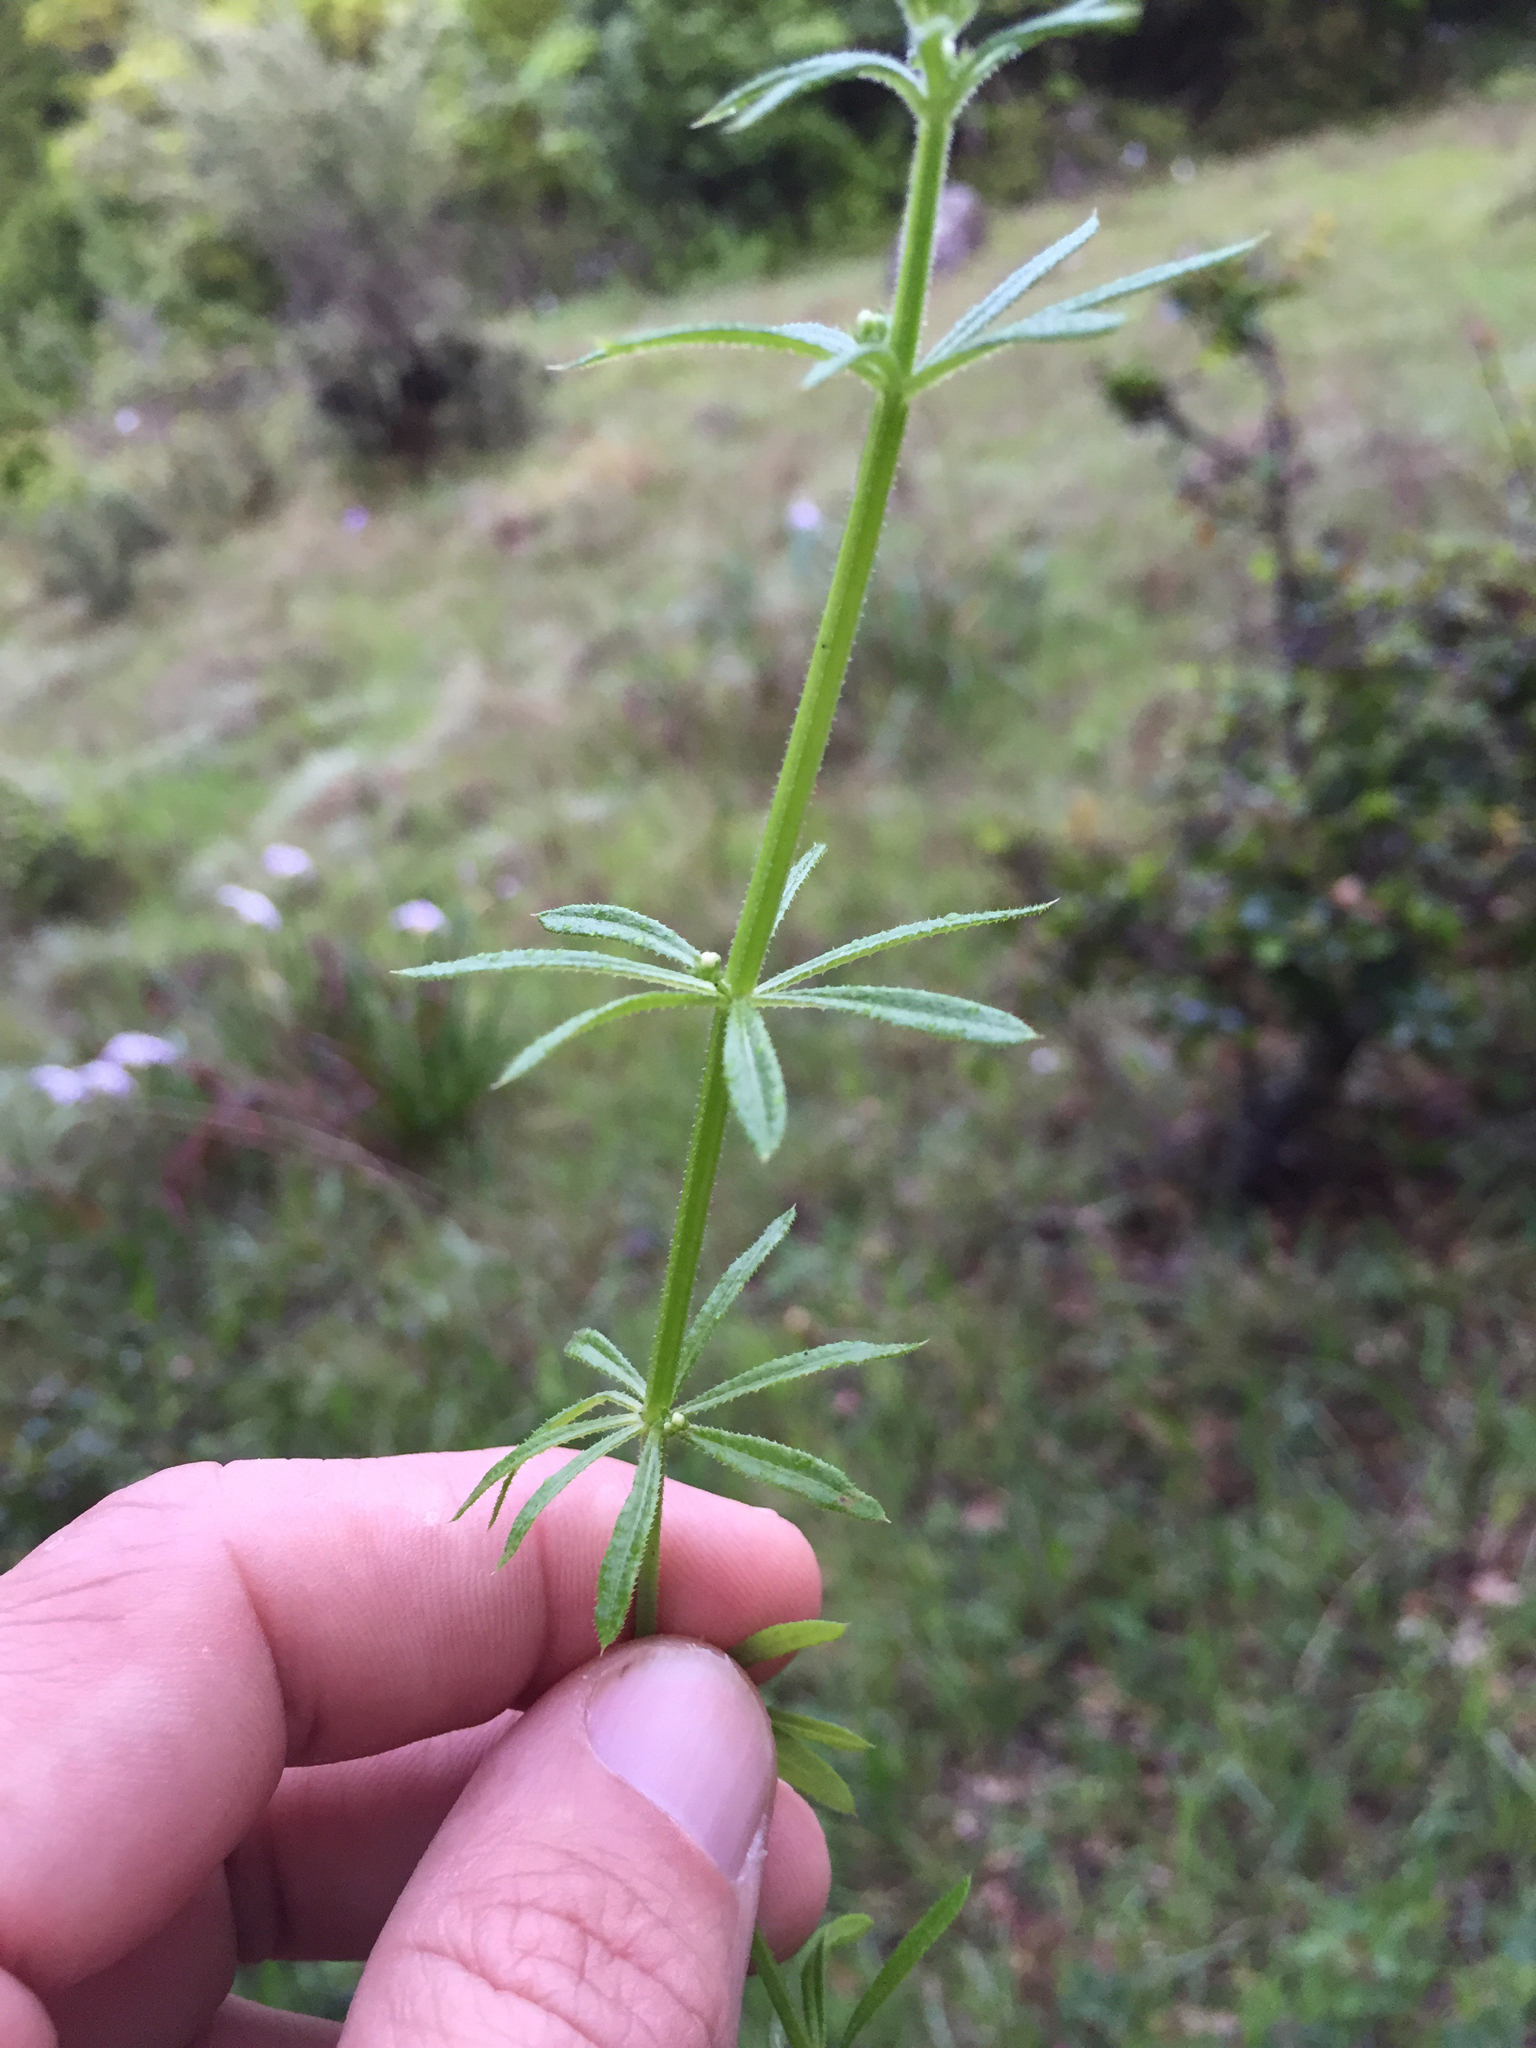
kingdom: Plantae
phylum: Tracheophyta
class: Magnoliopsida
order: Gentianales
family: Rubiaceae
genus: Galium
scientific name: Galium aparine
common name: Cleavers
